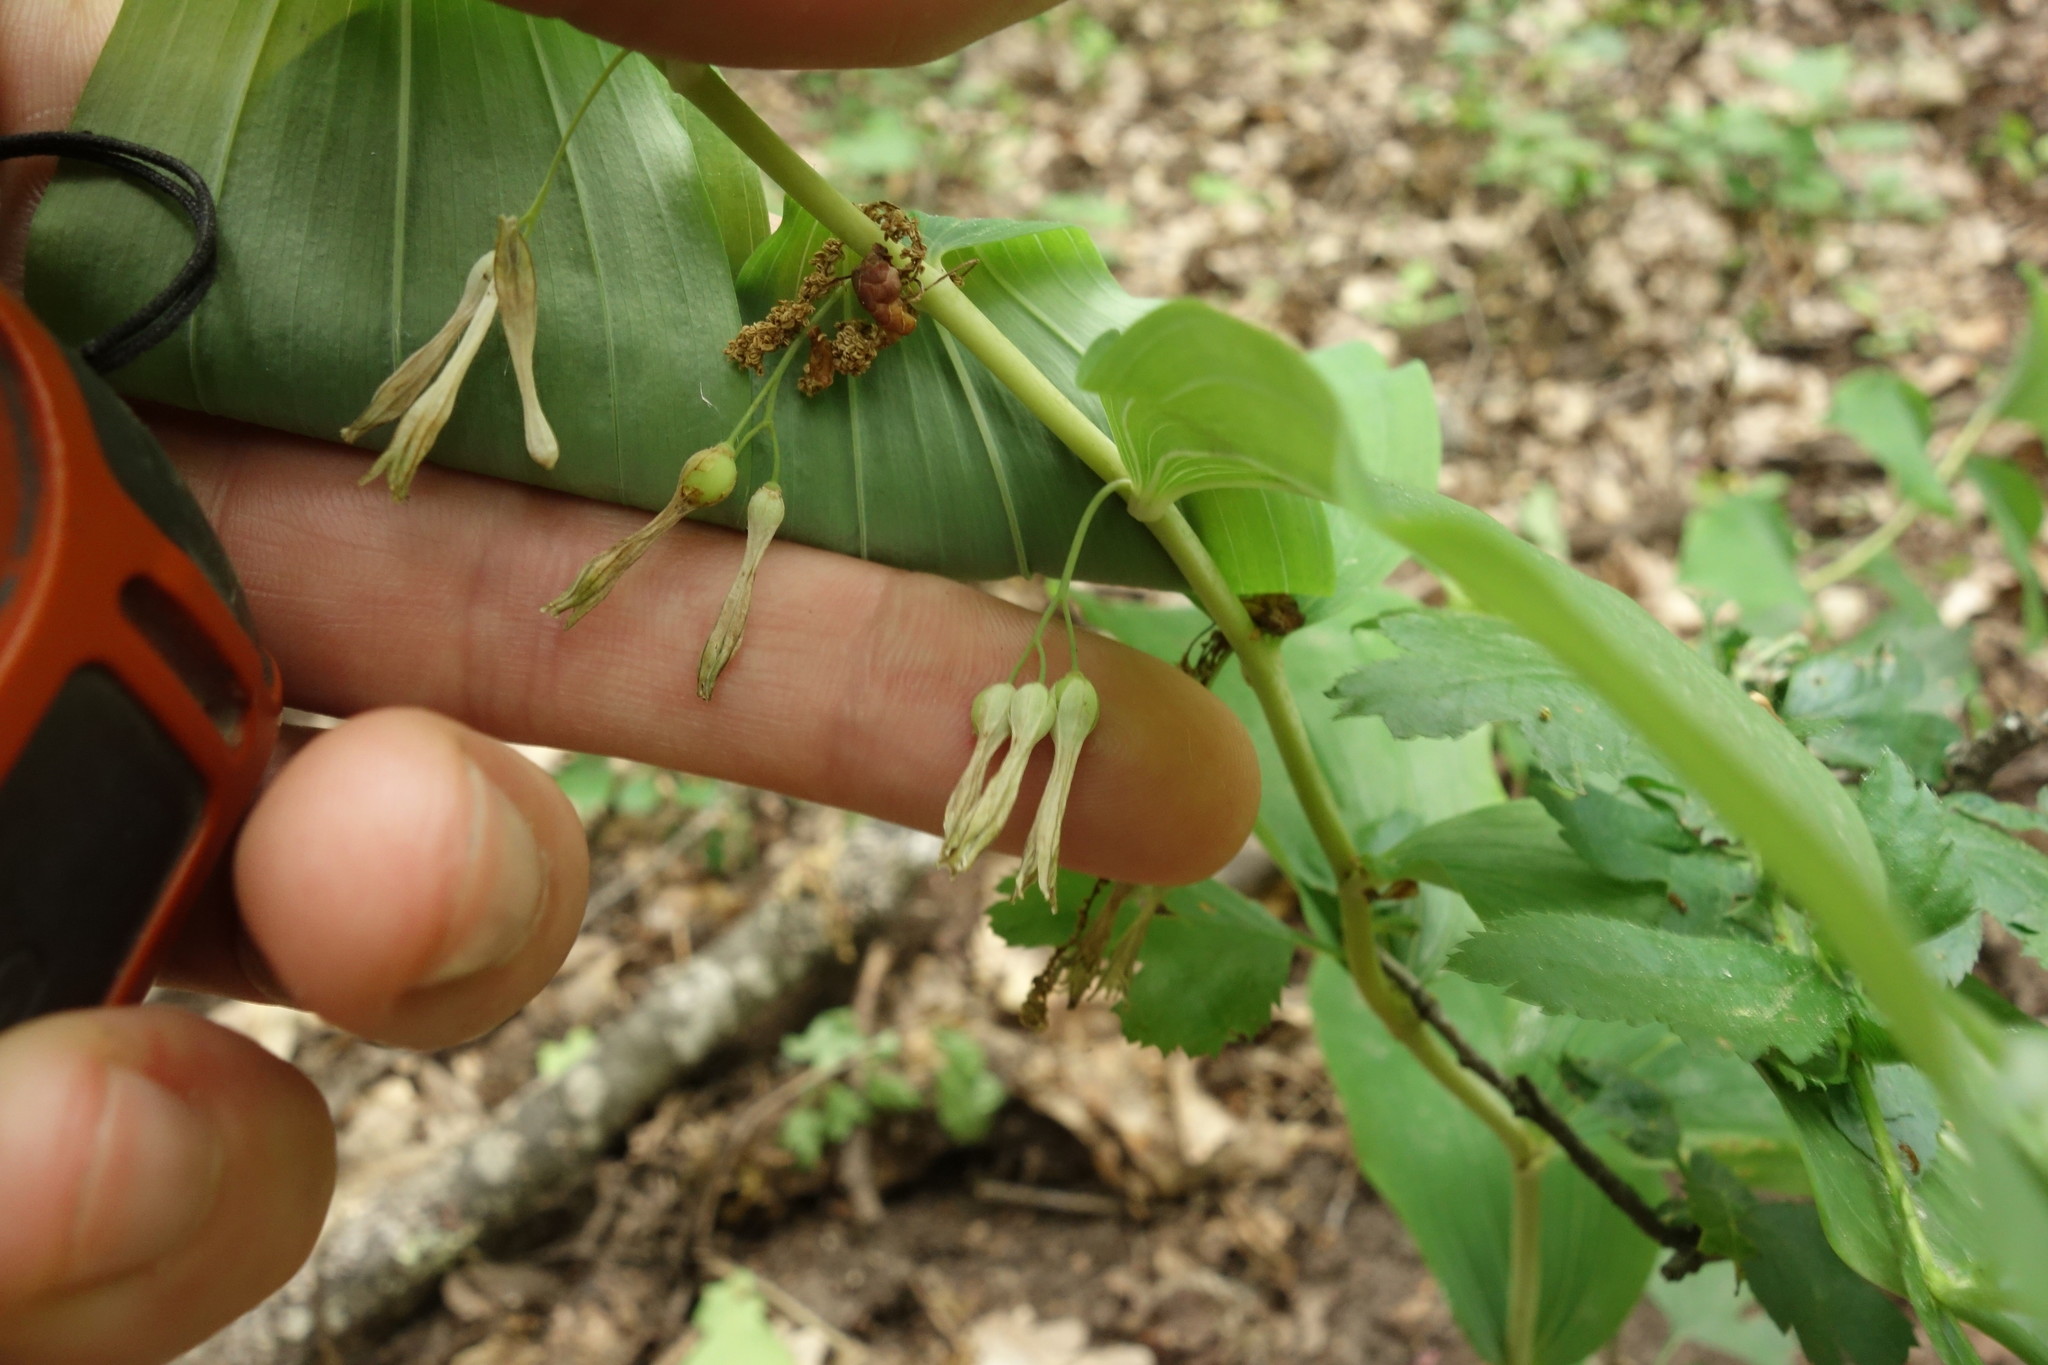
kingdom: Plantae
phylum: Tracheophyta
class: Liliopsida
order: Asparagales
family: Asparagaceae
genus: Polygonatum
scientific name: Polygonatum multiflorum
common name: Solomon's-seal
